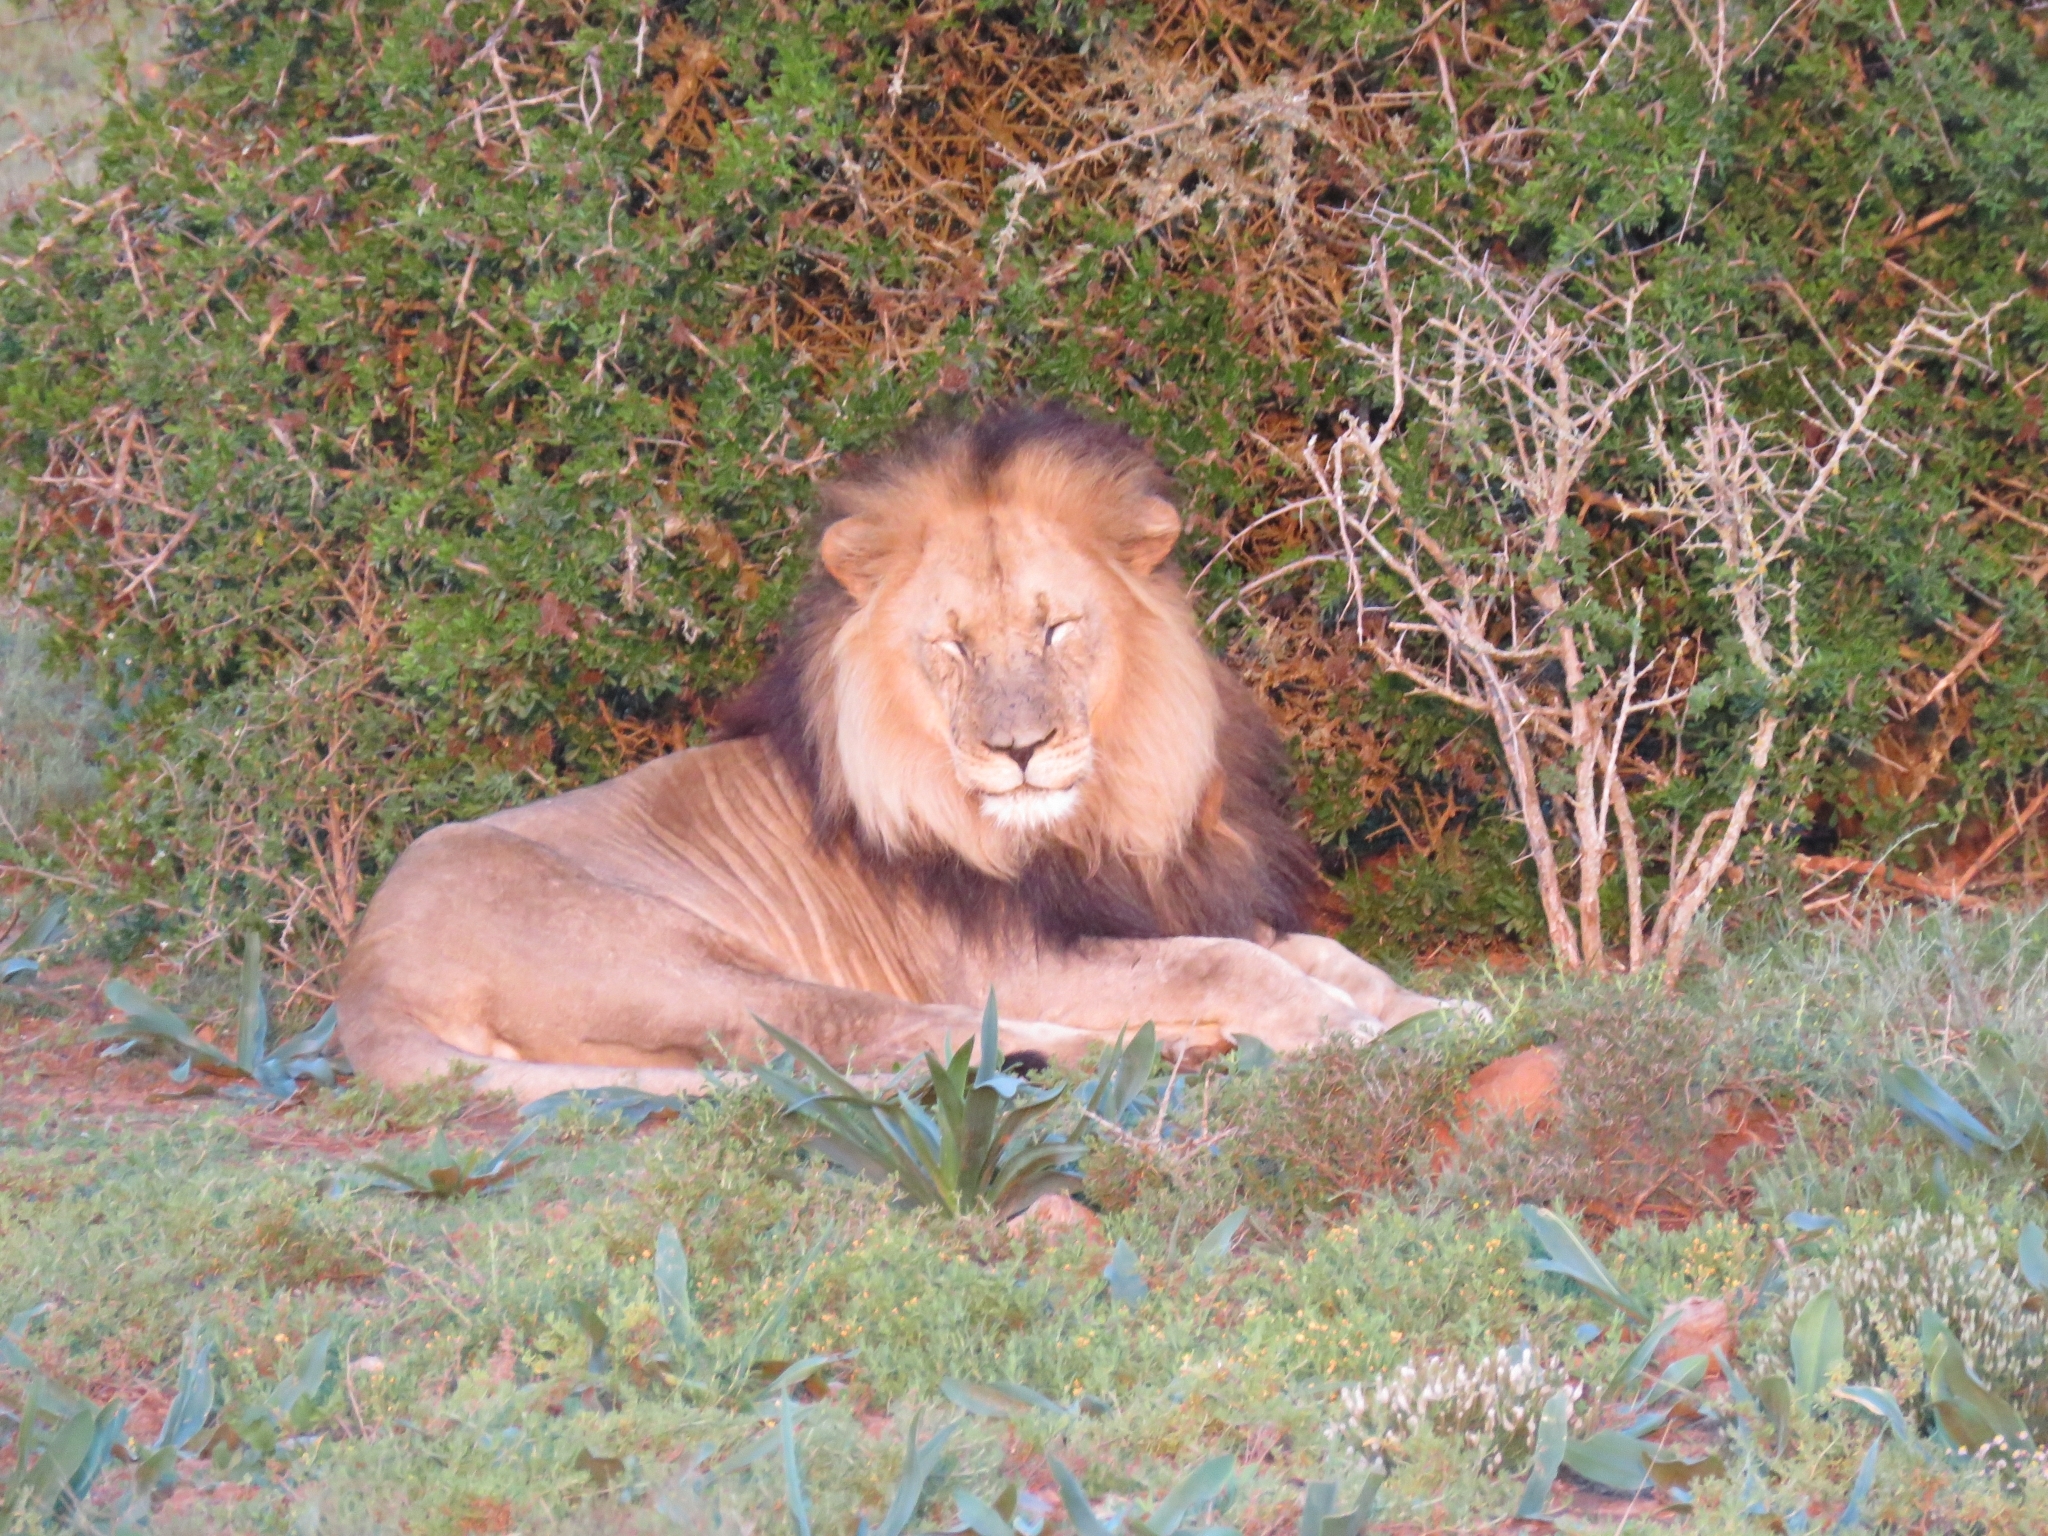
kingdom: Animalia
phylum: Chordata
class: Mammalia
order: Carnivora
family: Felidae
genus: Panthera
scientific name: Panthera leo
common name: Lion
